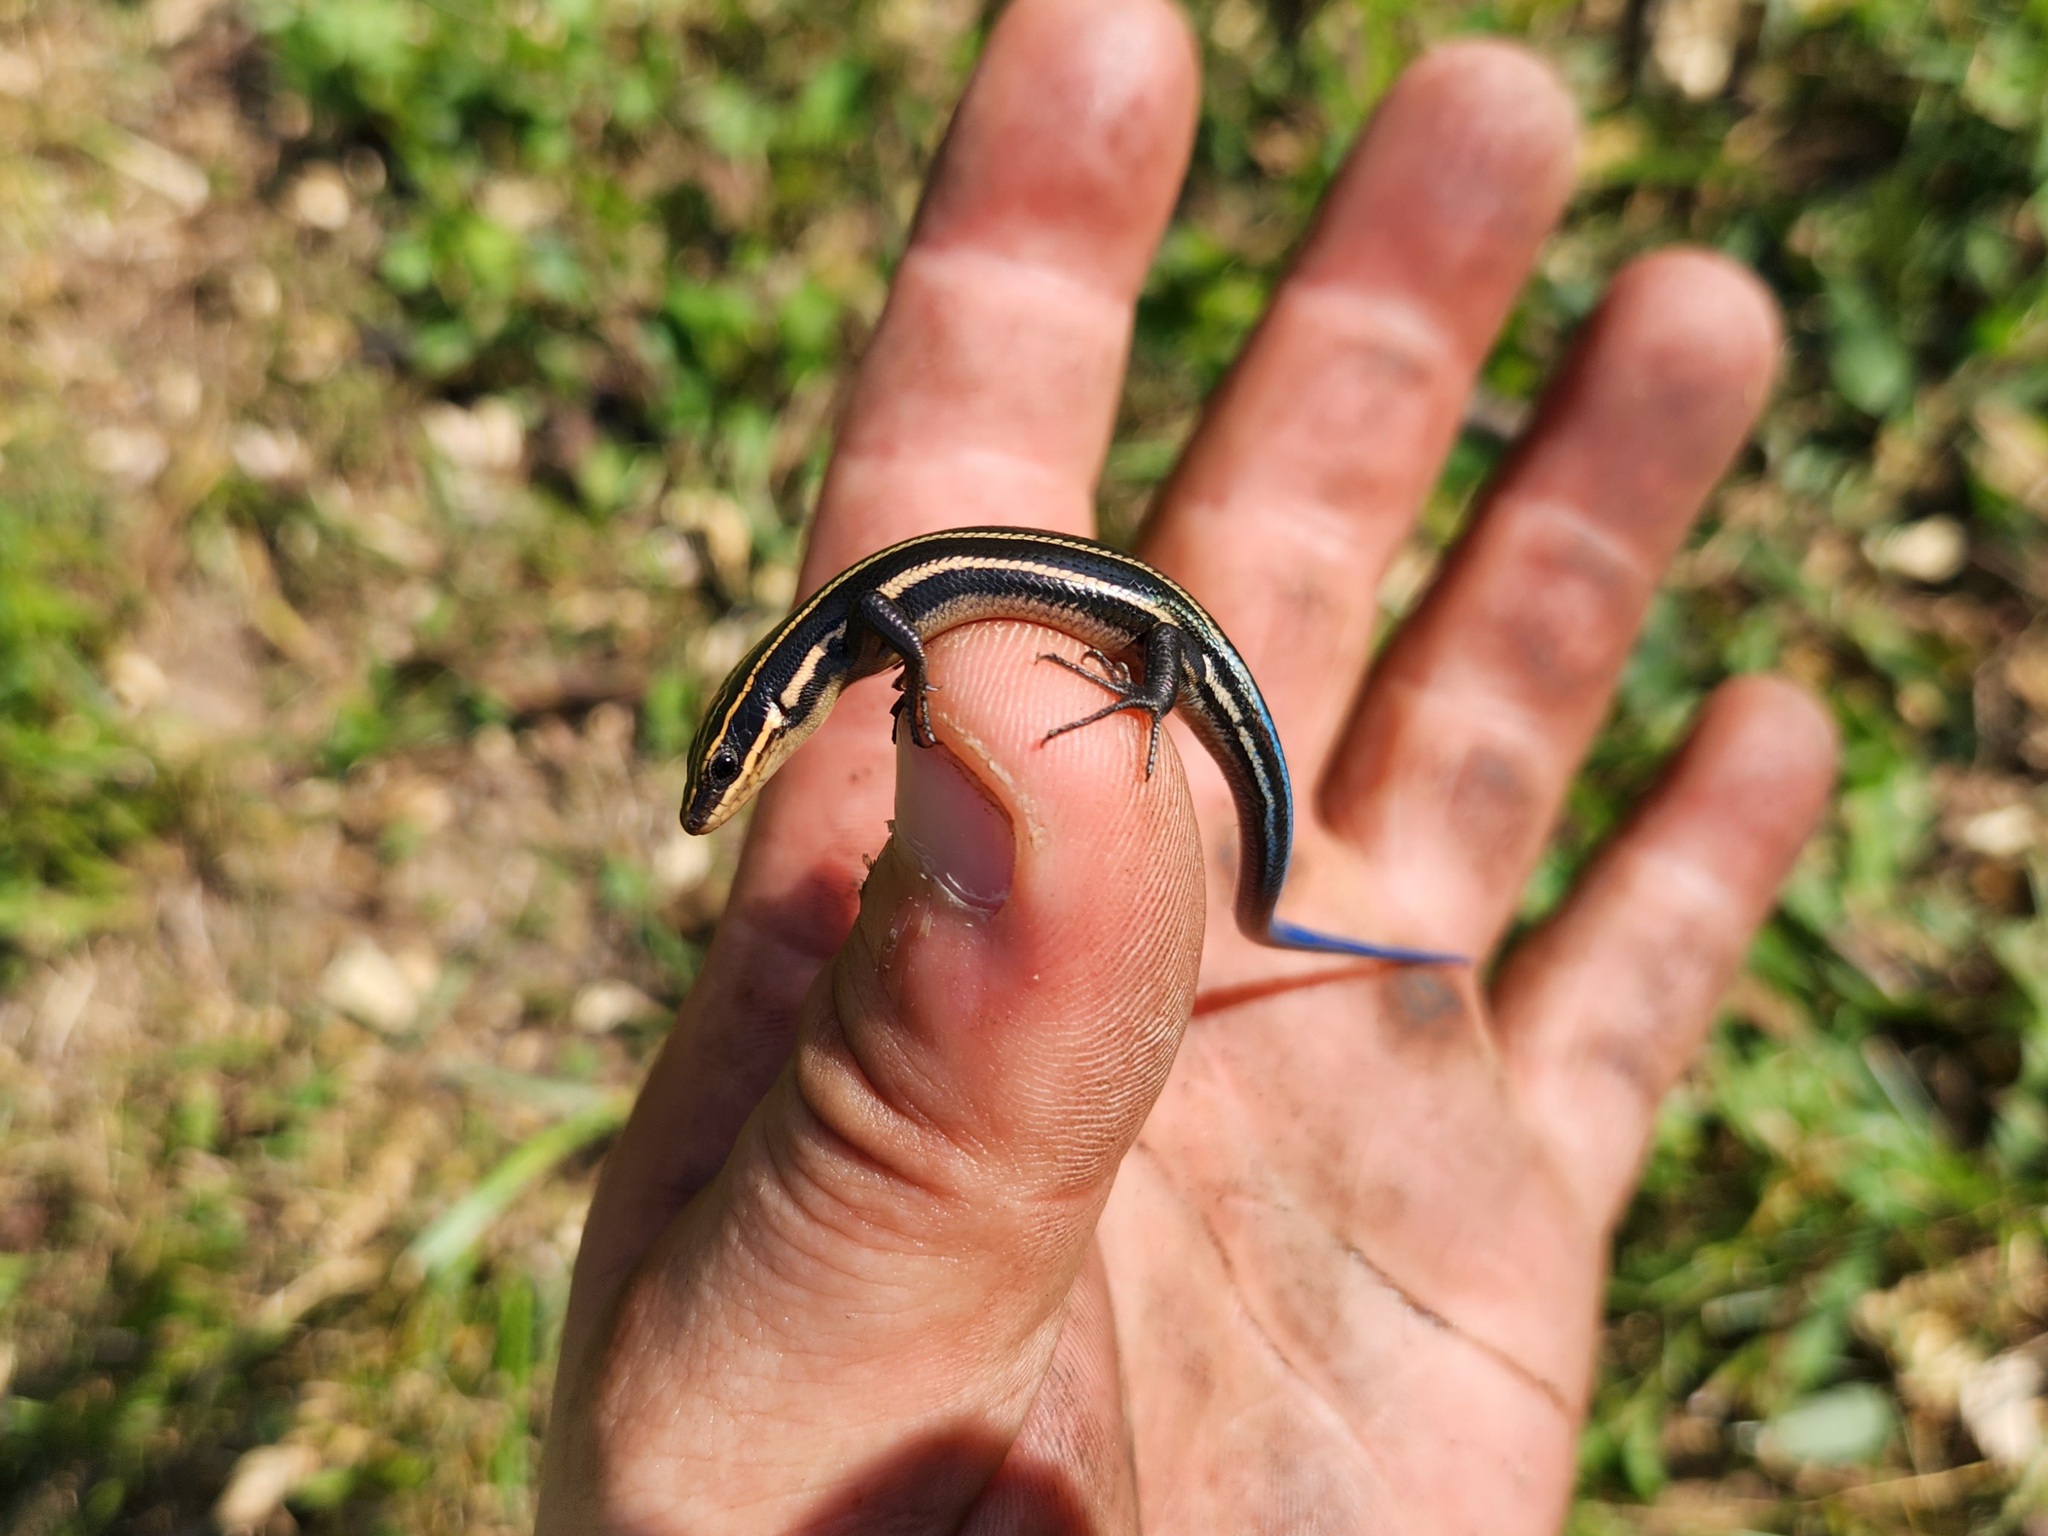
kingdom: Animalia
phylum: Chordata
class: Squamata
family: Scincidae
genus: Plestiodon
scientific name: Plestiodon fasciatus
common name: Five-lined skink
